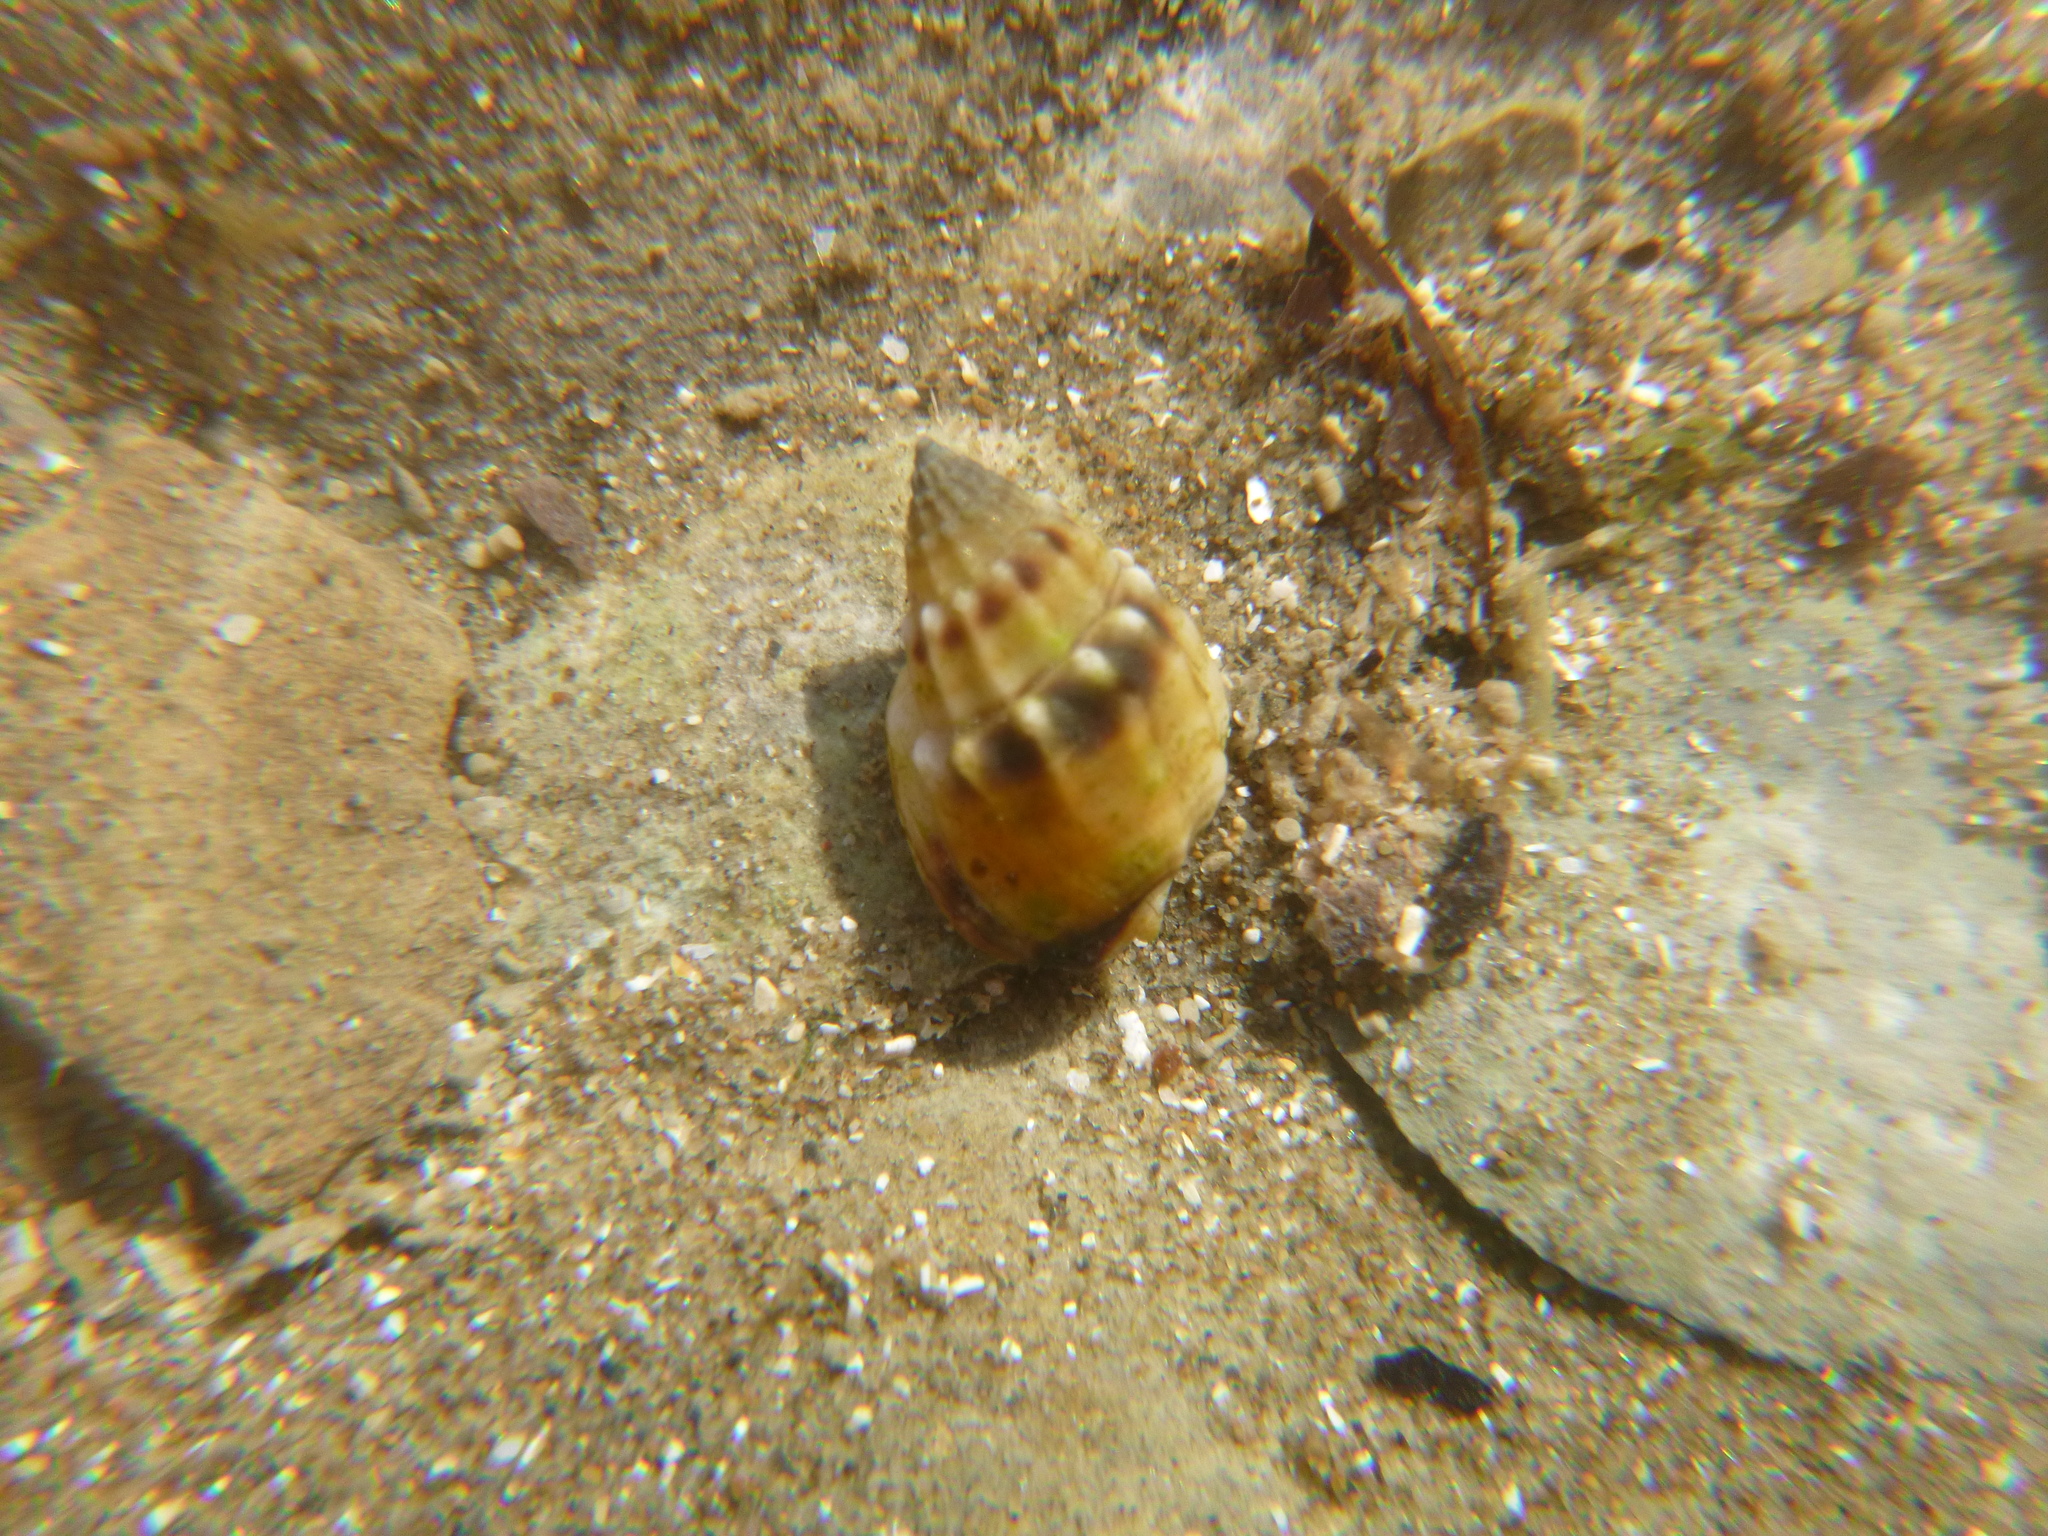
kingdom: Animalia
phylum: Mollusca
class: Gastropoda
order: Neogastropoda
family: Nassariidae
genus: Tritia
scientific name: Tritia burchardi
